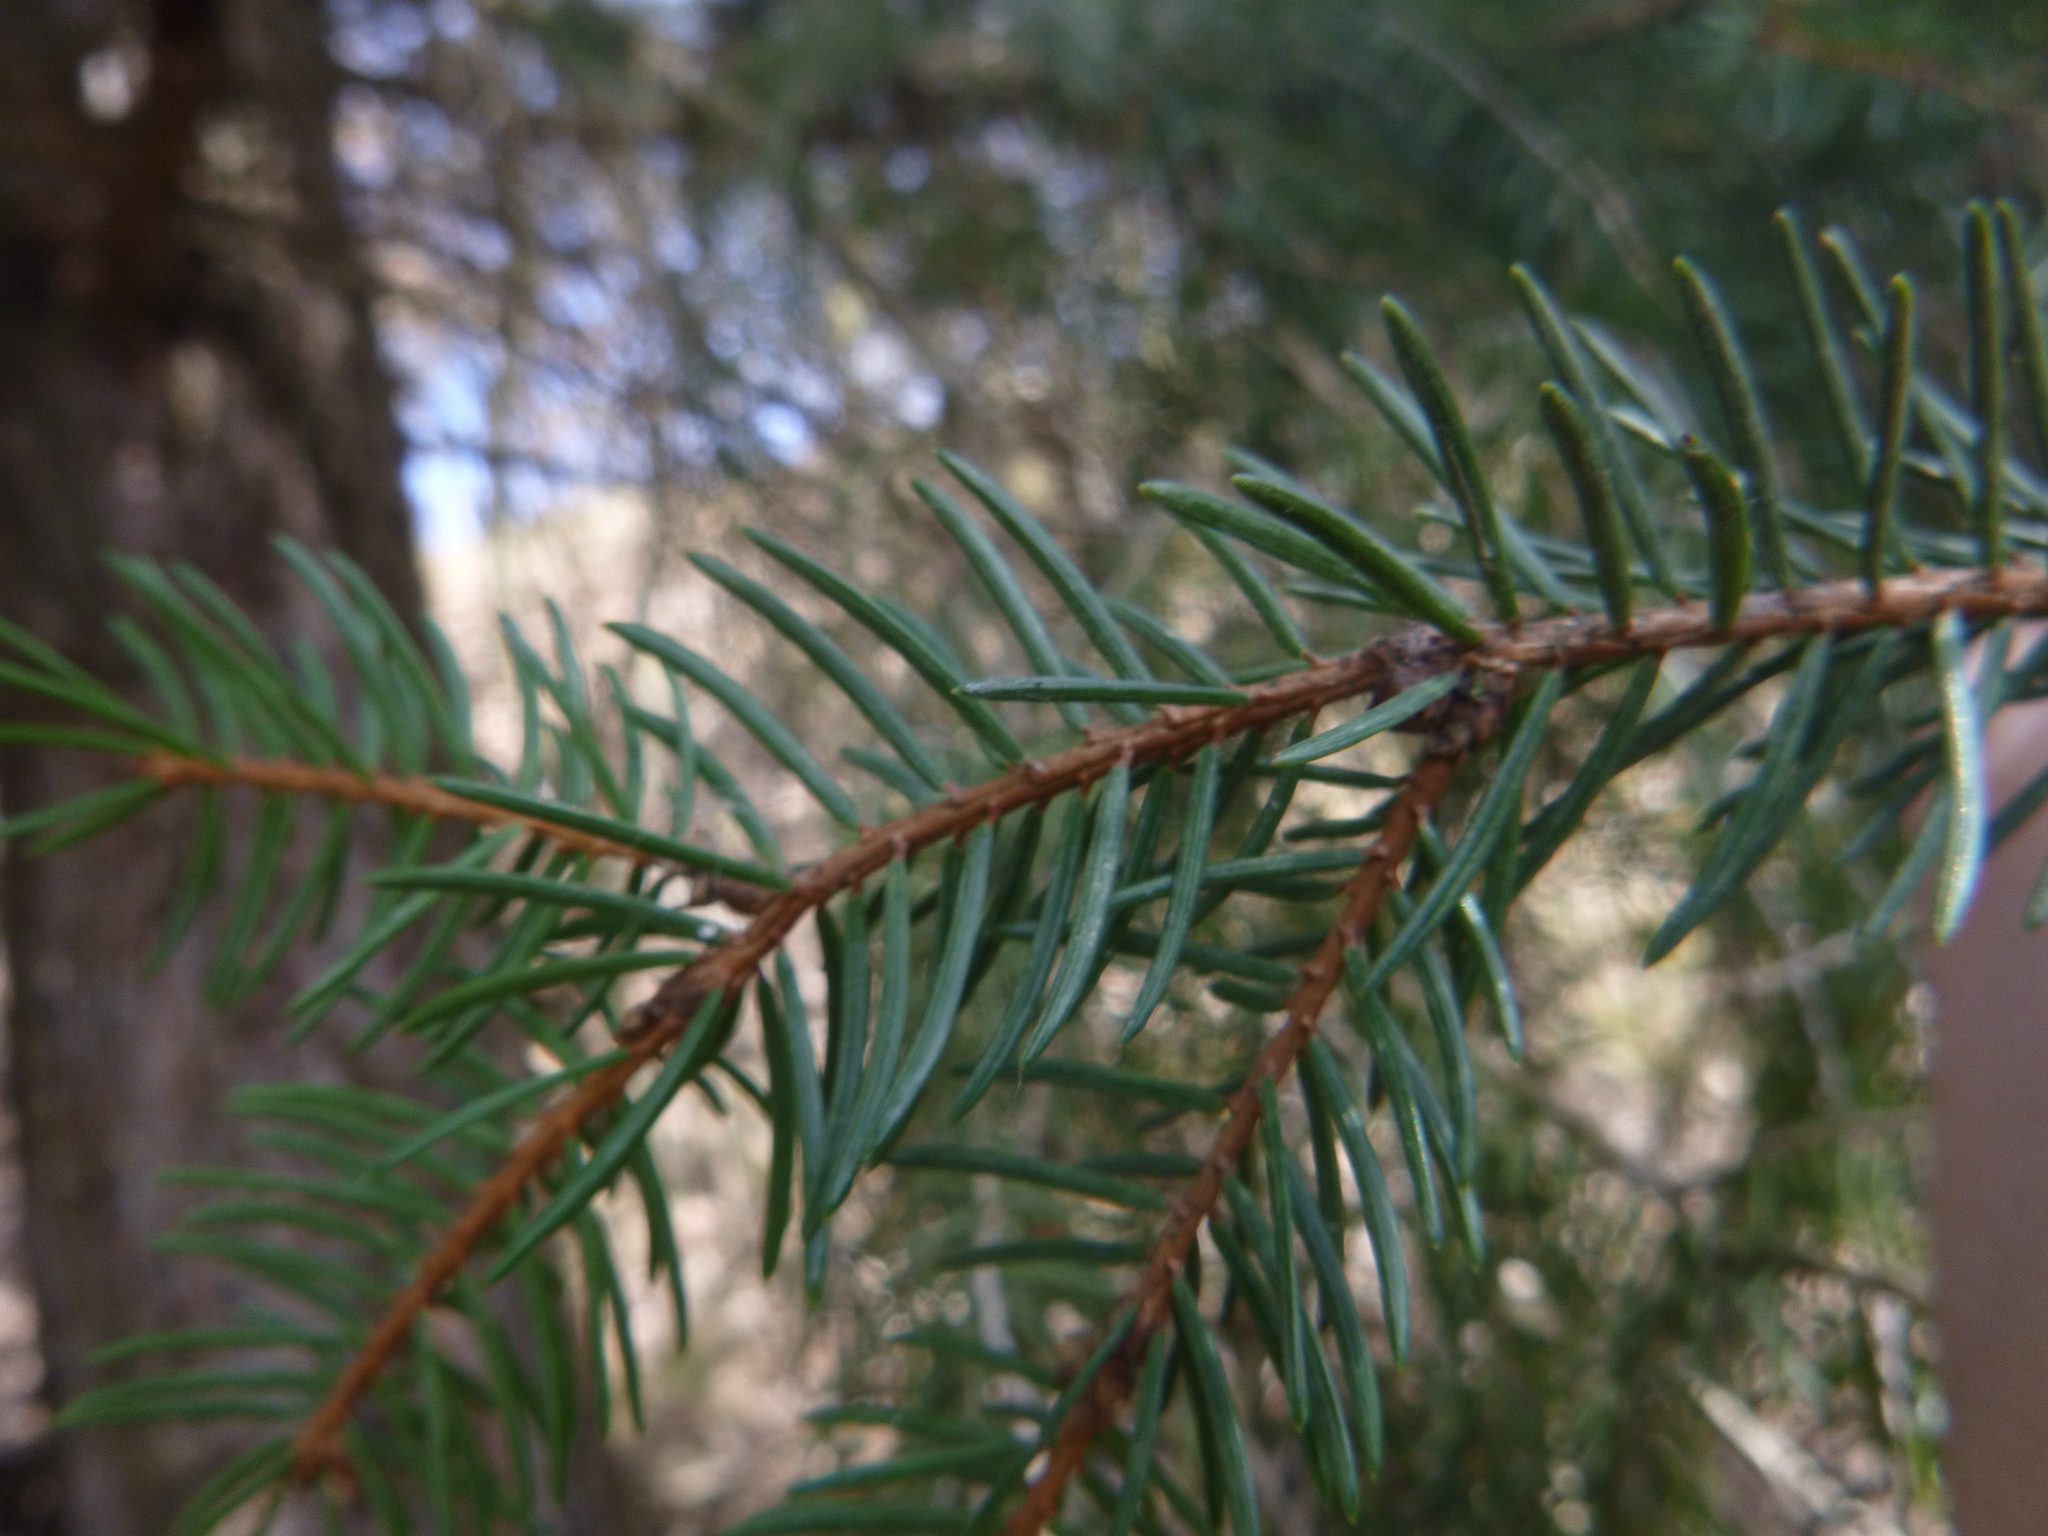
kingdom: Plantae
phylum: Tracheophyta
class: Pinopsida
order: Pinales
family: Pinaceae
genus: Picea
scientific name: Picea abies
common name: Norway spruce
